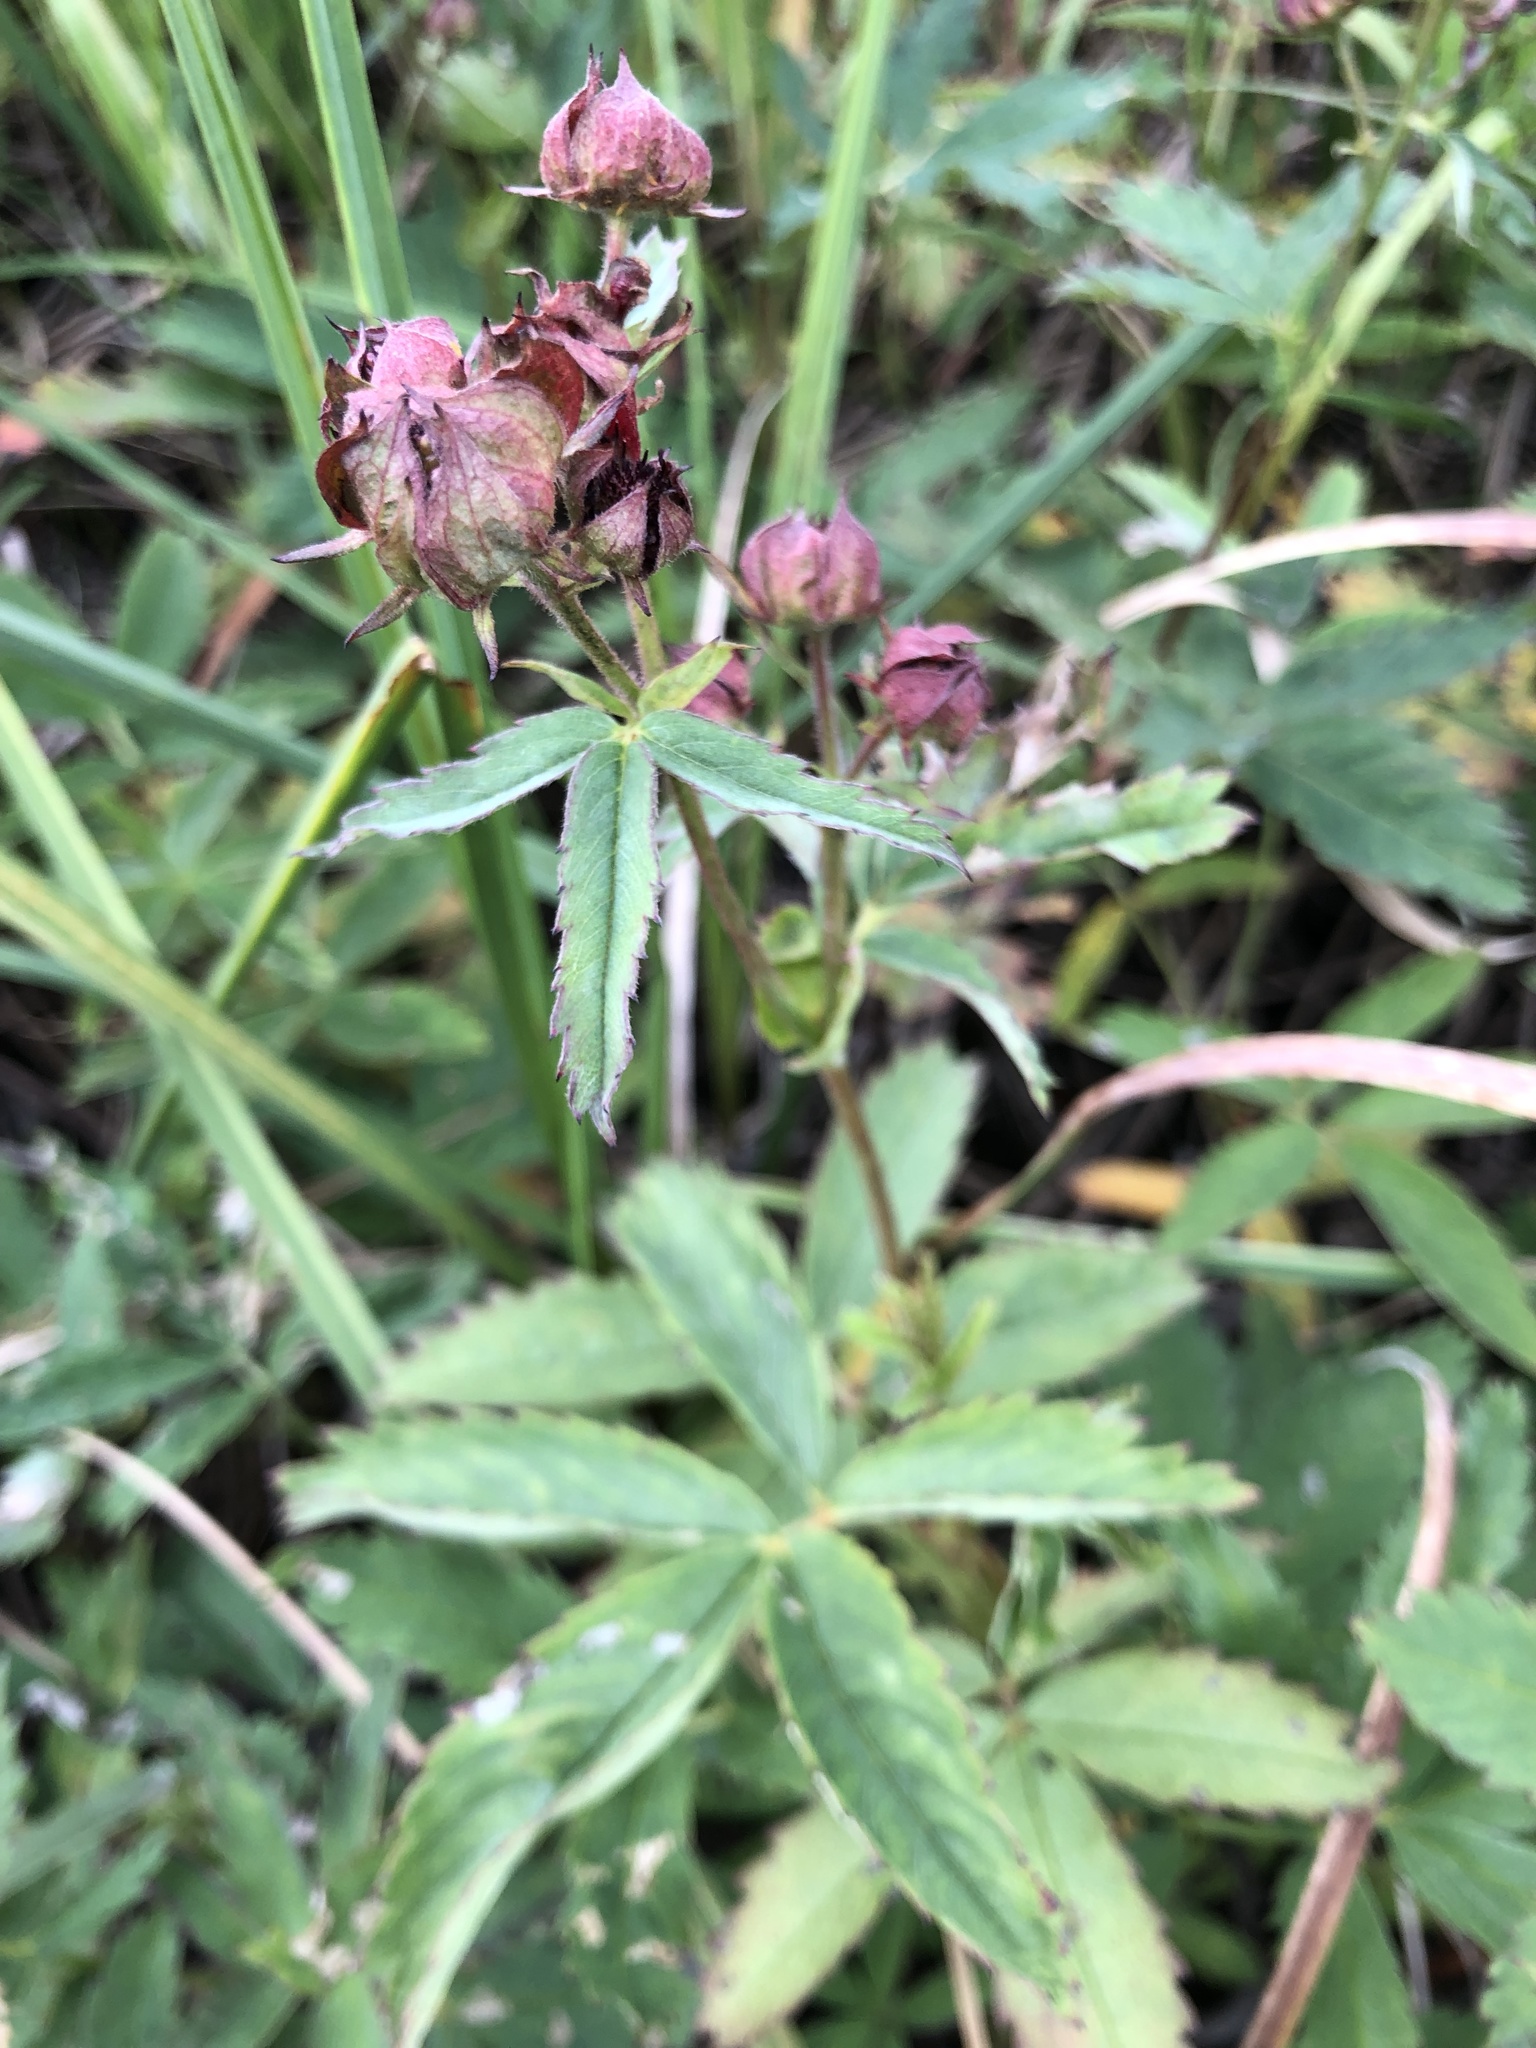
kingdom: Plantae
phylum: Tracheophyta
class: Magnoliopsida
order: Rosales
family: Rosaceae
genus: Comarum
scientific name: Comarum palustre
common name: Marsh cinquefoil
